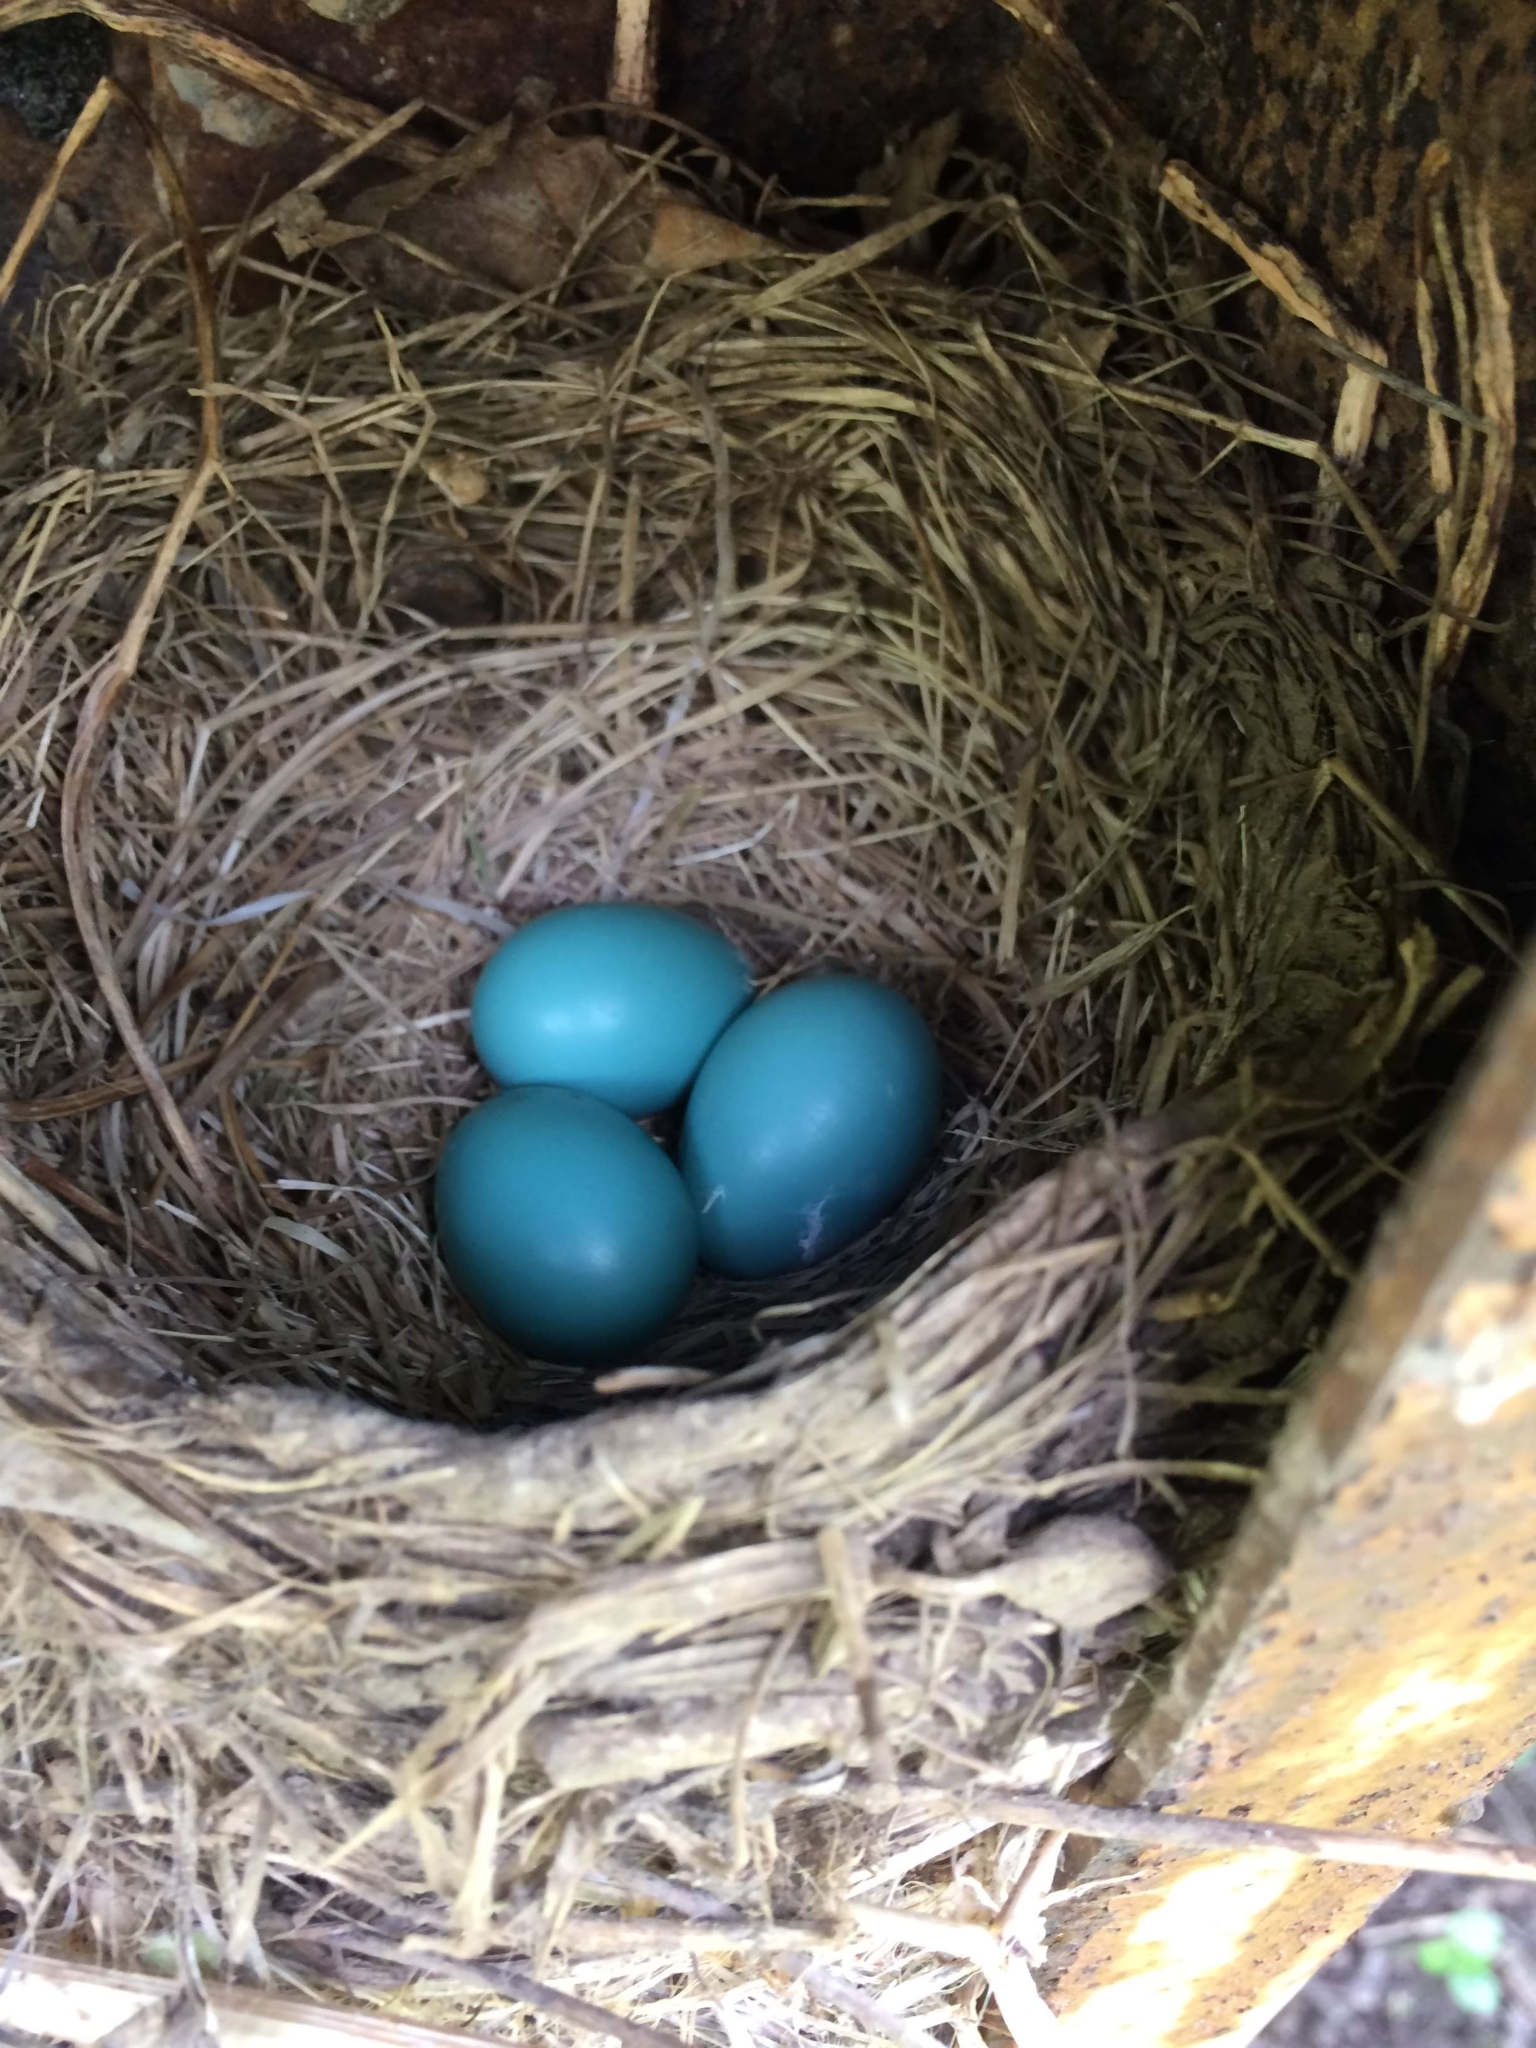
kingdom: Animalia
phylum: Chordata
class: Aves
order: Passeriformes
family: Turdidae
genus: Turdus
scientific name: Turdus migratorius
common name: American robin
